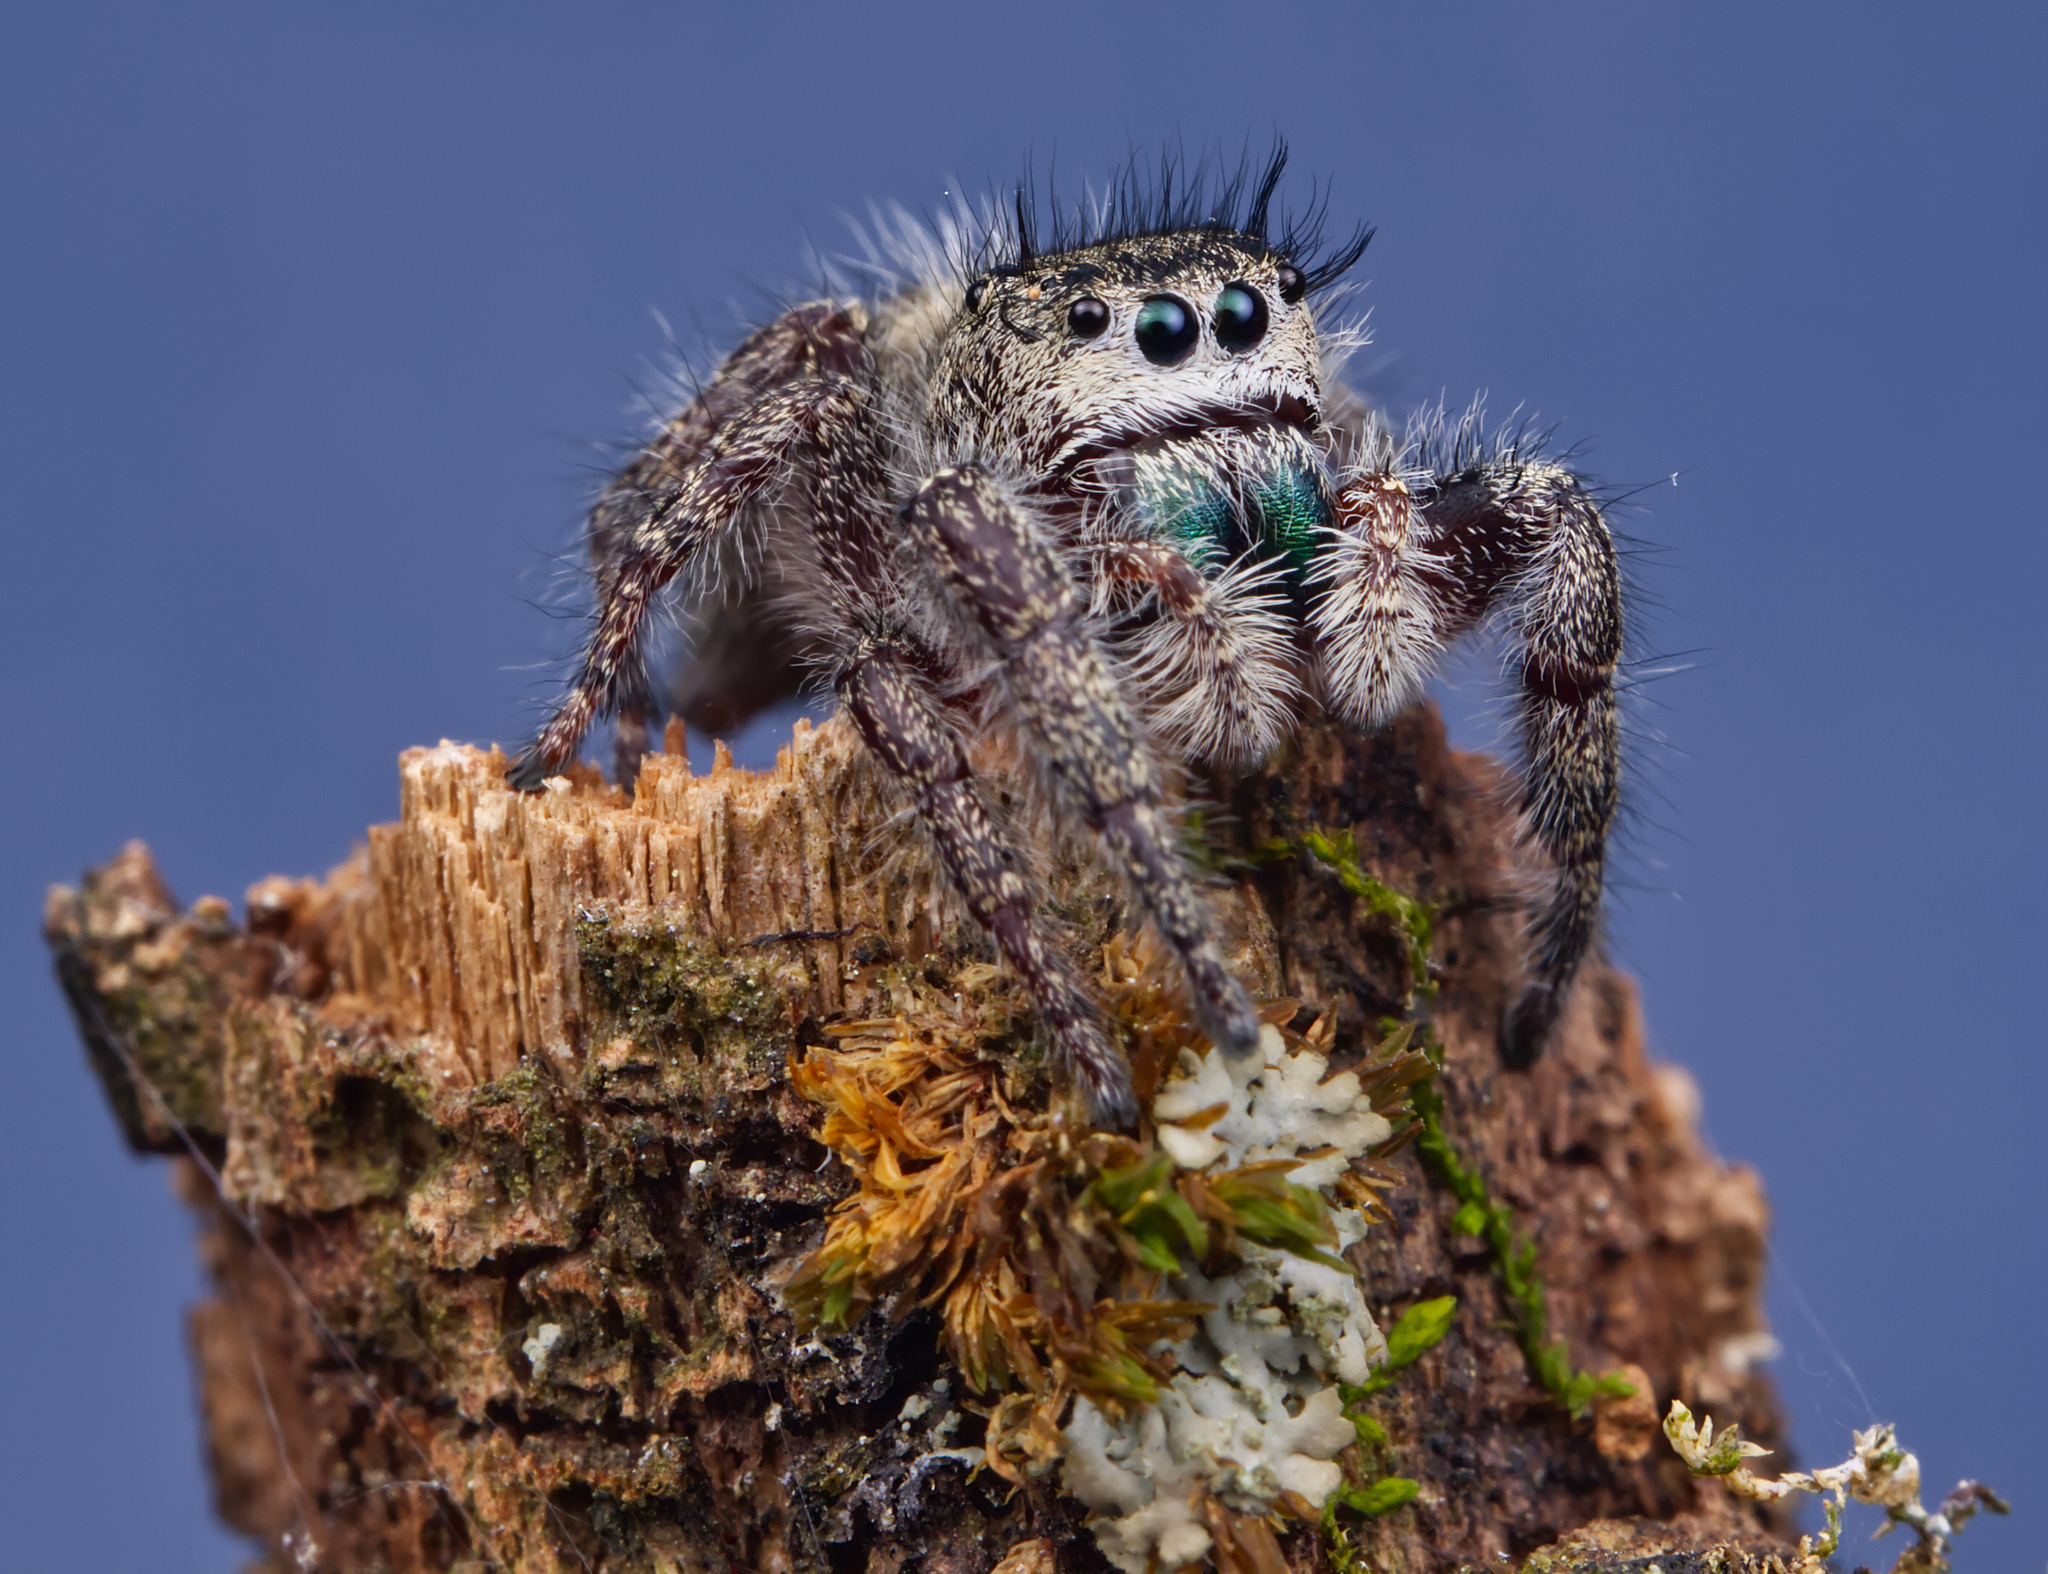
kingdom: Animalia
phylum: Arthropoda
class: Arachnida
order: Araneae
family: Salticidae
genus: Phidippus
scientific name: Phidippus princeps
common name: Grayish jumping spider
